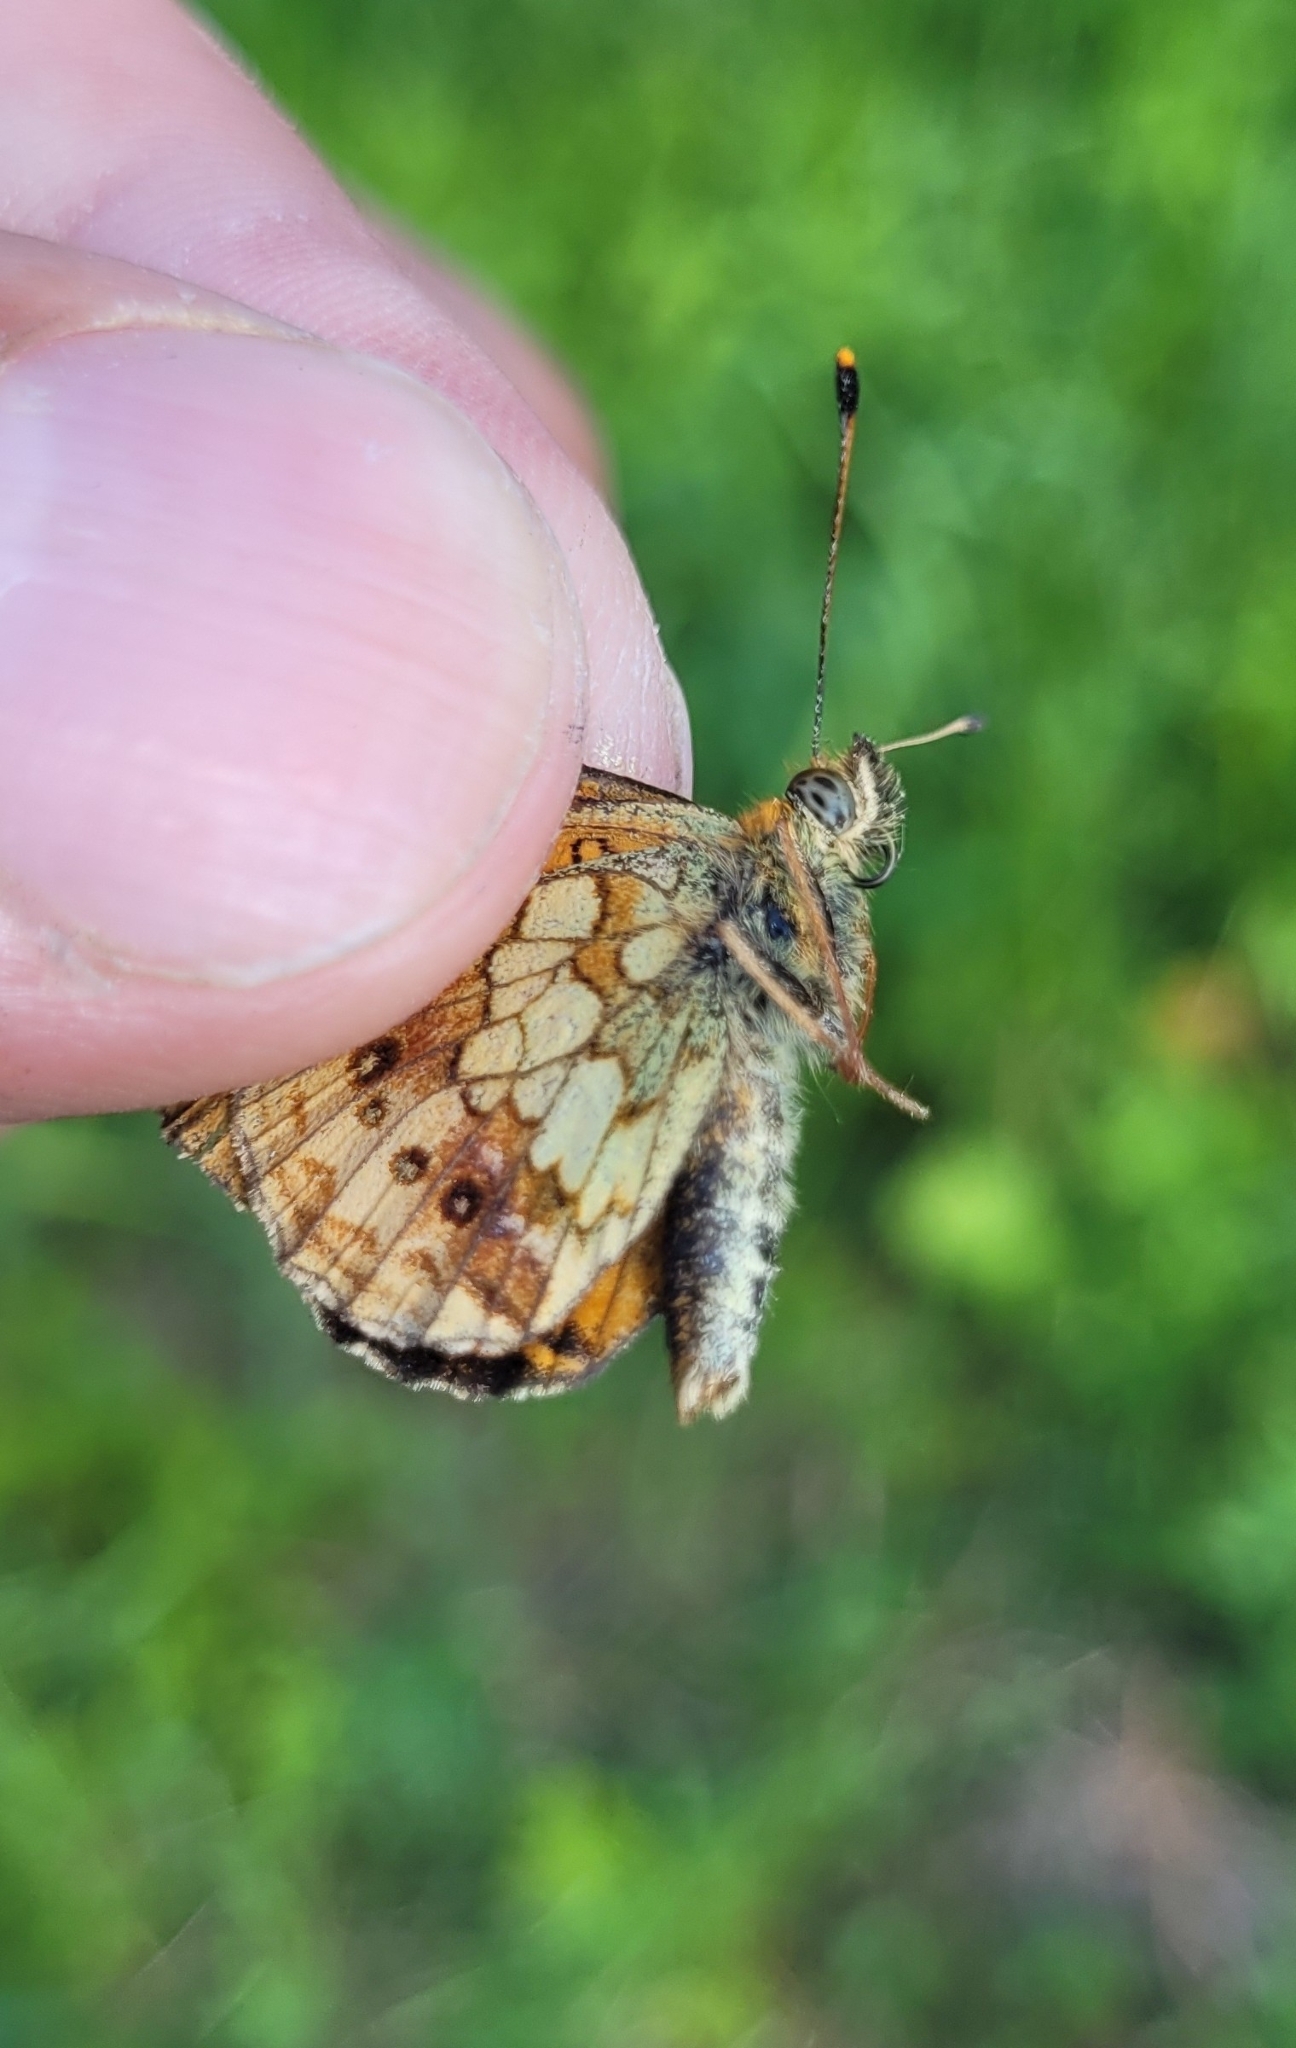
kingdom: Animalia
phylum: Arthropoda
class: Insecta
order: Lepidoptera
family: Nymphalidae
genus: Brenthis
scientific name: Brenthis ino
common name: Lesser marbled fritillary
